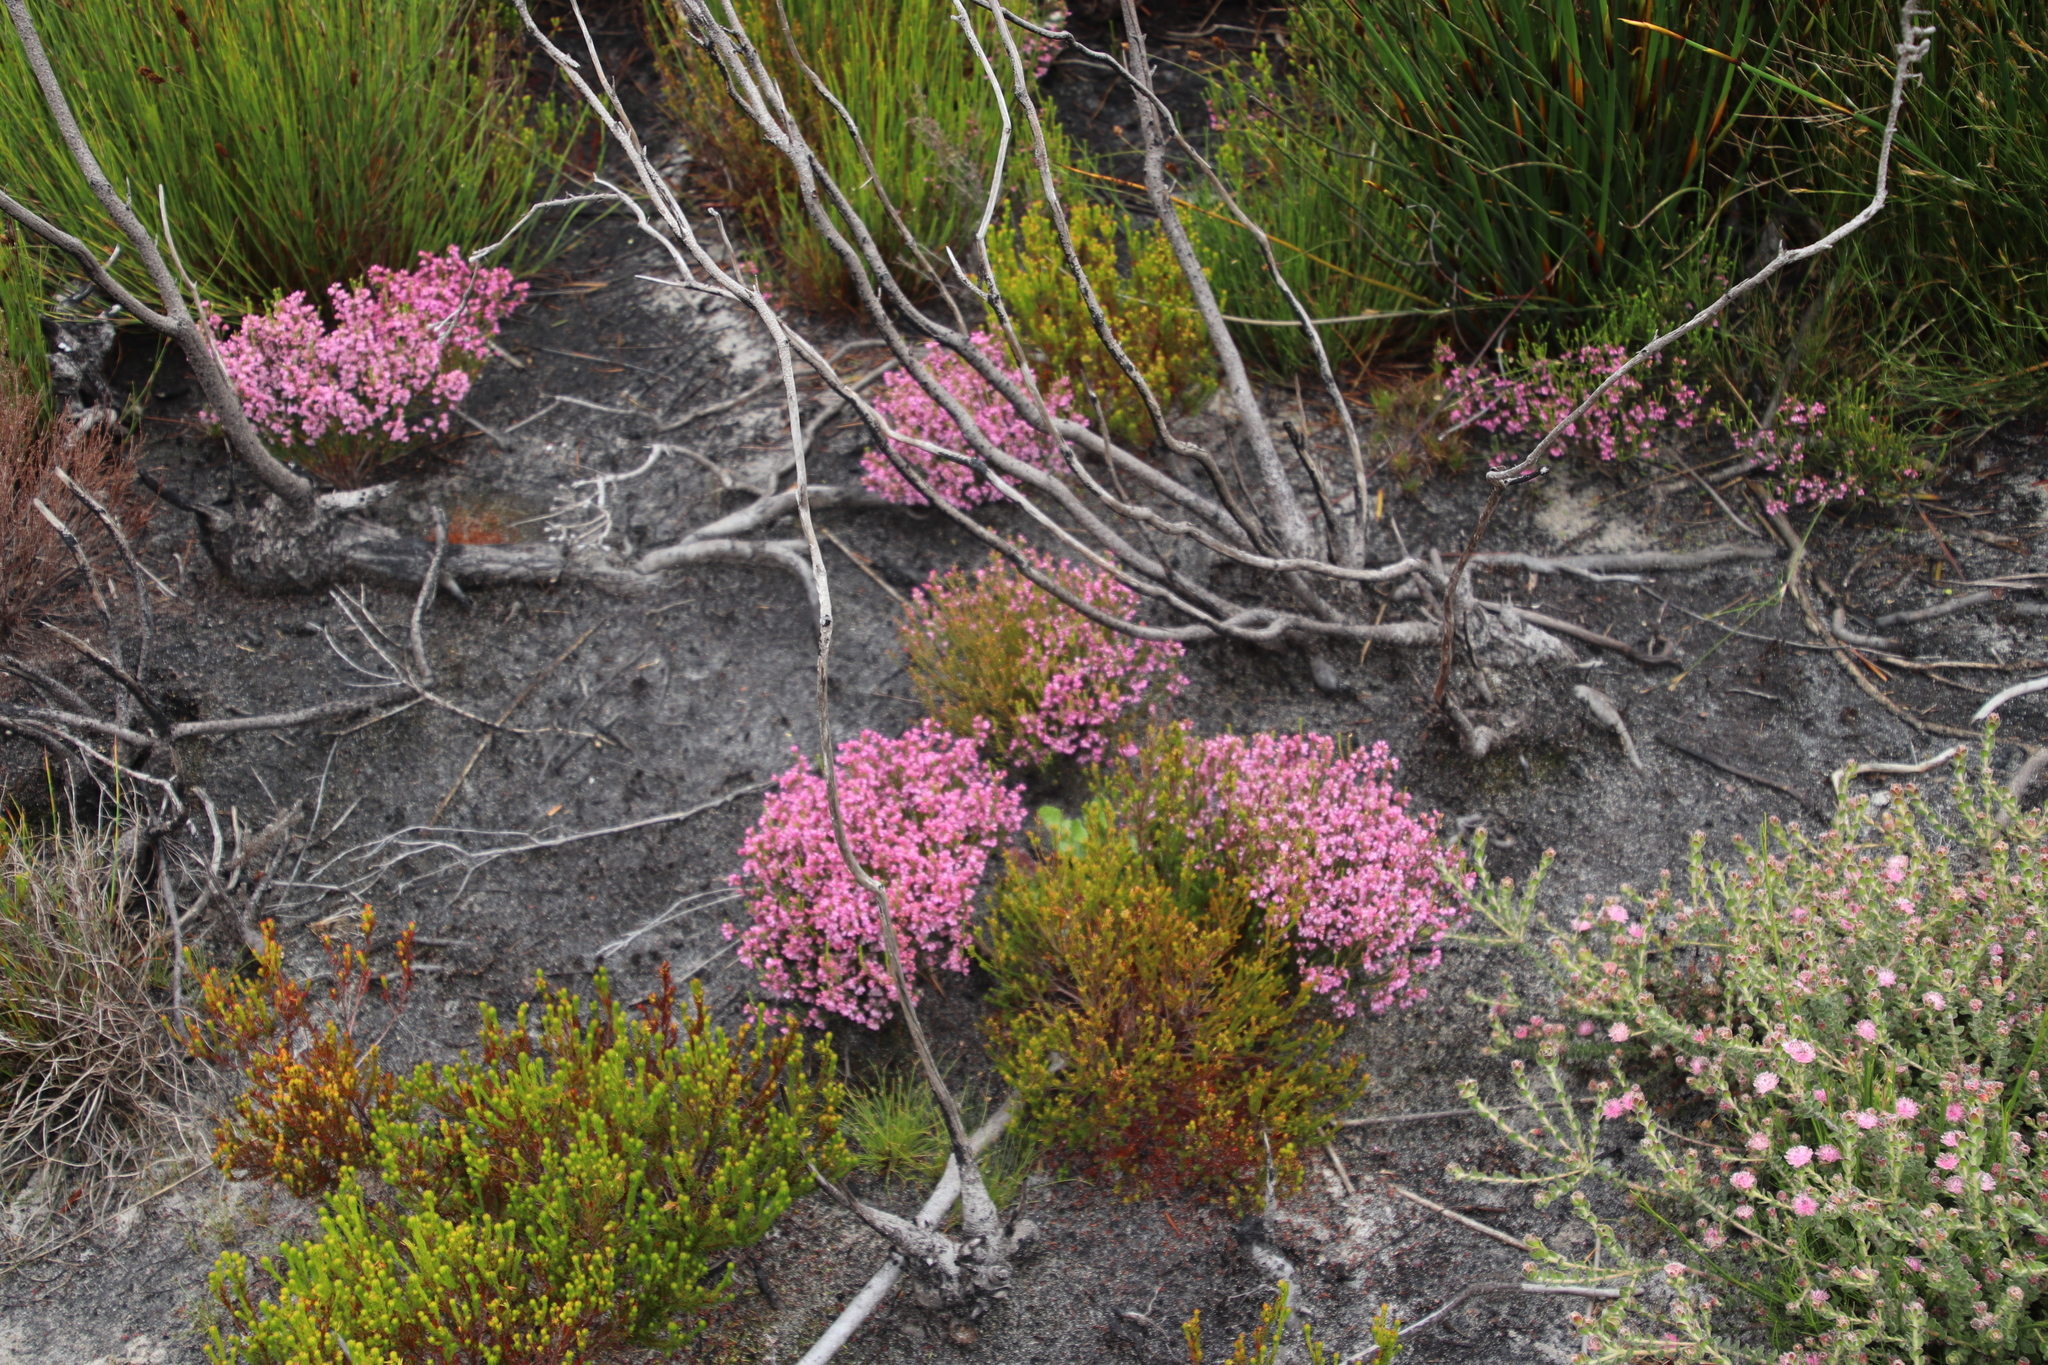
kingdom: Plantae
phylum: Tracheophyta
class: Magnoliopsida
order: Ericales
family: Ericaceae
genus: Erica
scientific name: Erica gnaphaloides
